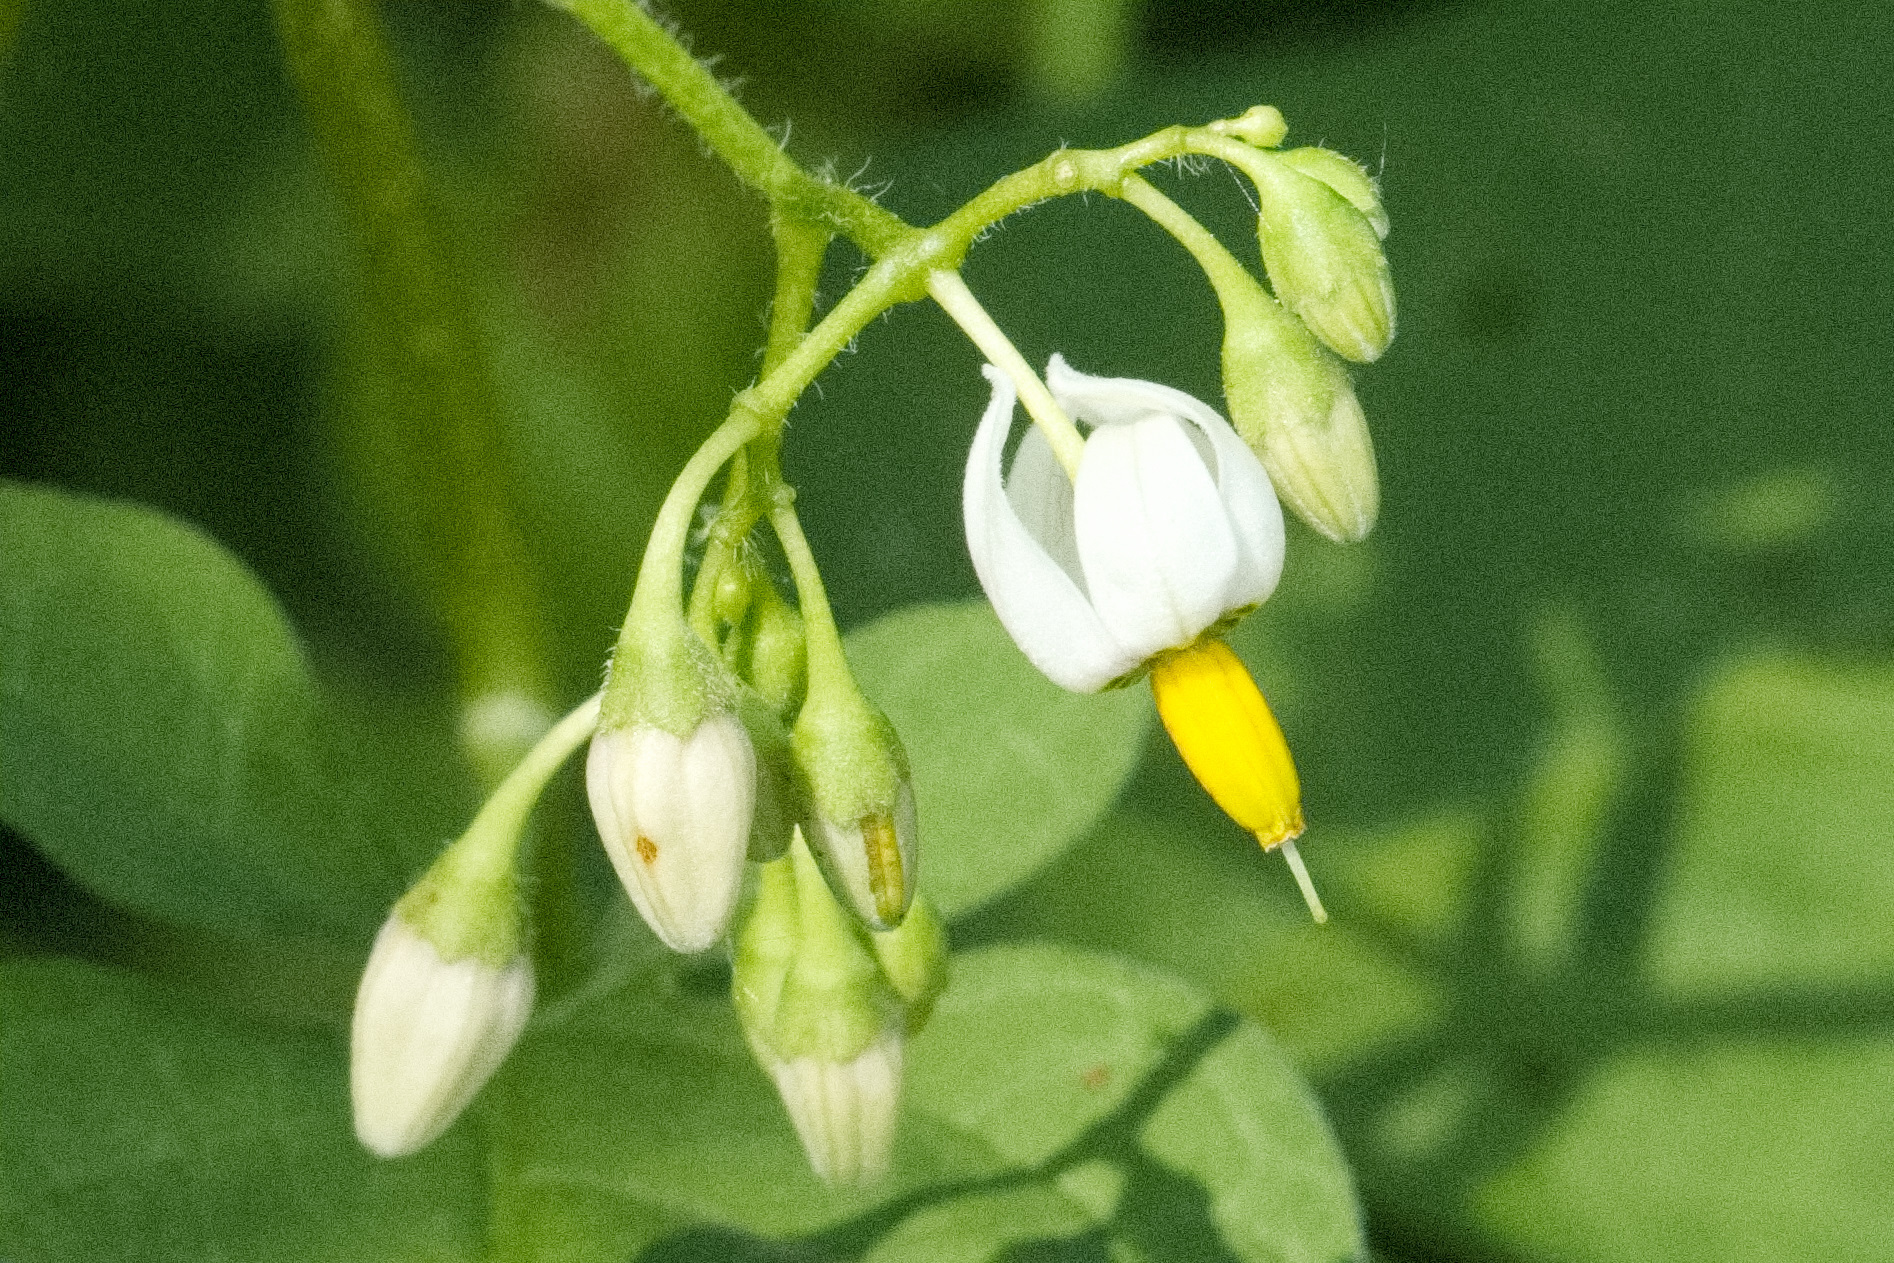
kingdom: Plantae
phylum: Tracheophyta
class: Magnoliopsida
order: Solanales
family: Solanaceae
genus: Solanum
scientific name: Solanum dulcamara
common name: Climbing nightshade
